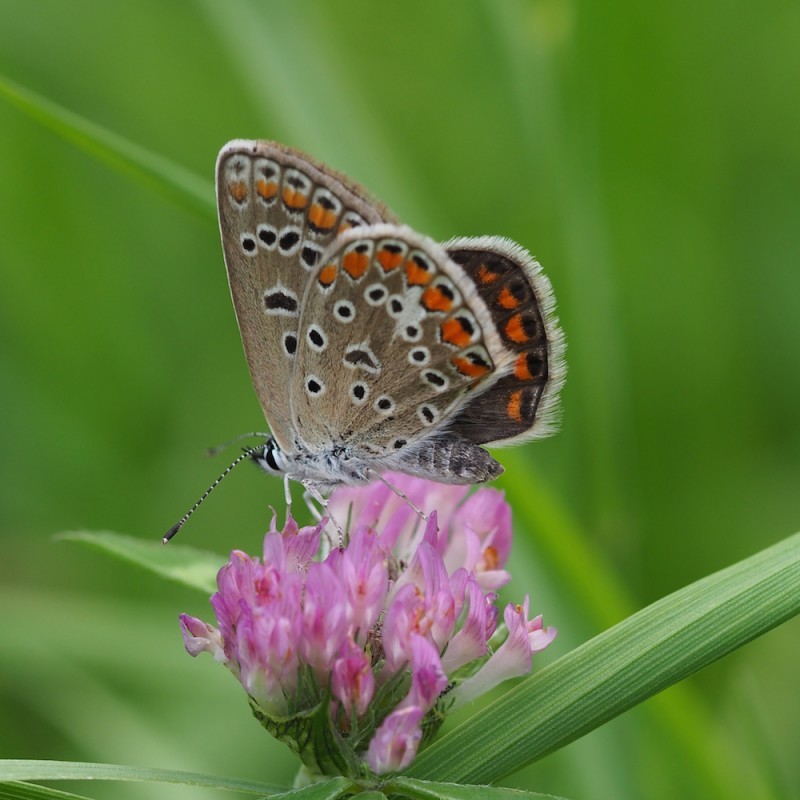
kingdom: Animalia
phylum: Arthropoda
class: Insecta
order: Lepidoptera
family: Lycaenidae
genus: Polyommatus
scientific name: Polyommatus icarus
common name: Common blue
